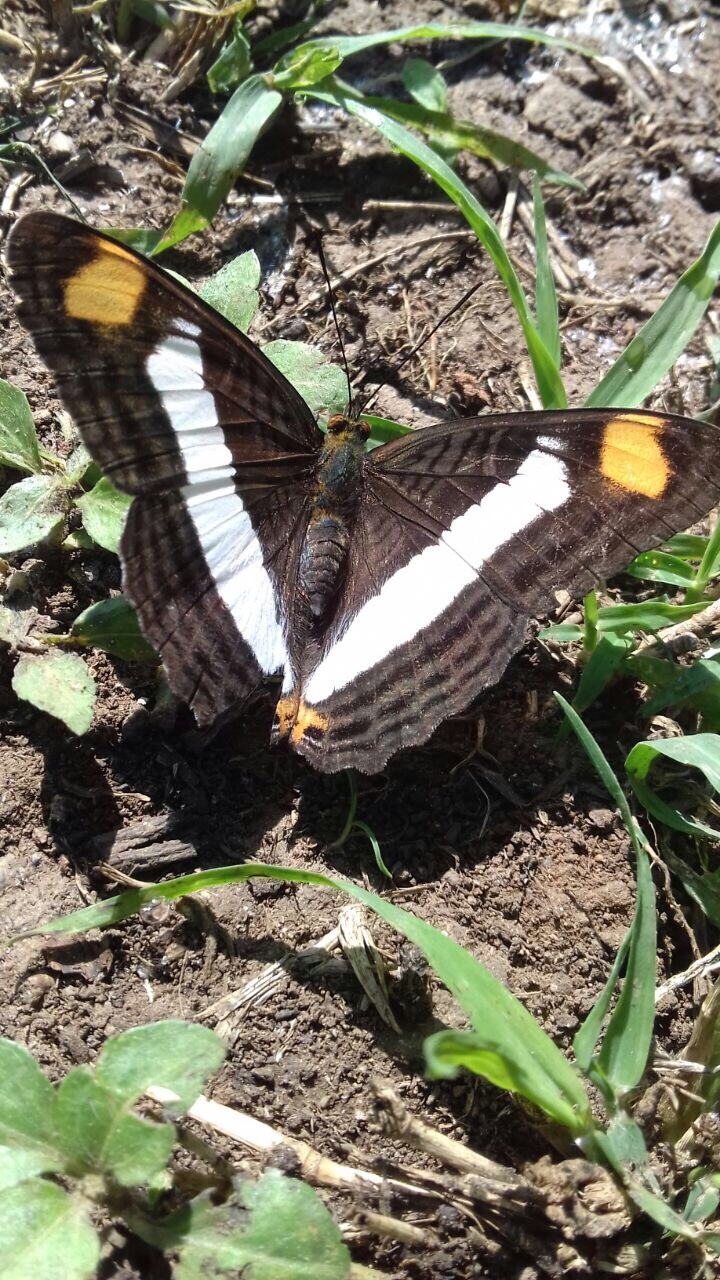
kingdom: Animalia
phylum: Arthropoda
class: Insecta
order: Lepidoptera
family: Nymphalidae
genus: Limenitis
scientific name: Limenitis Adelpha basiloides
